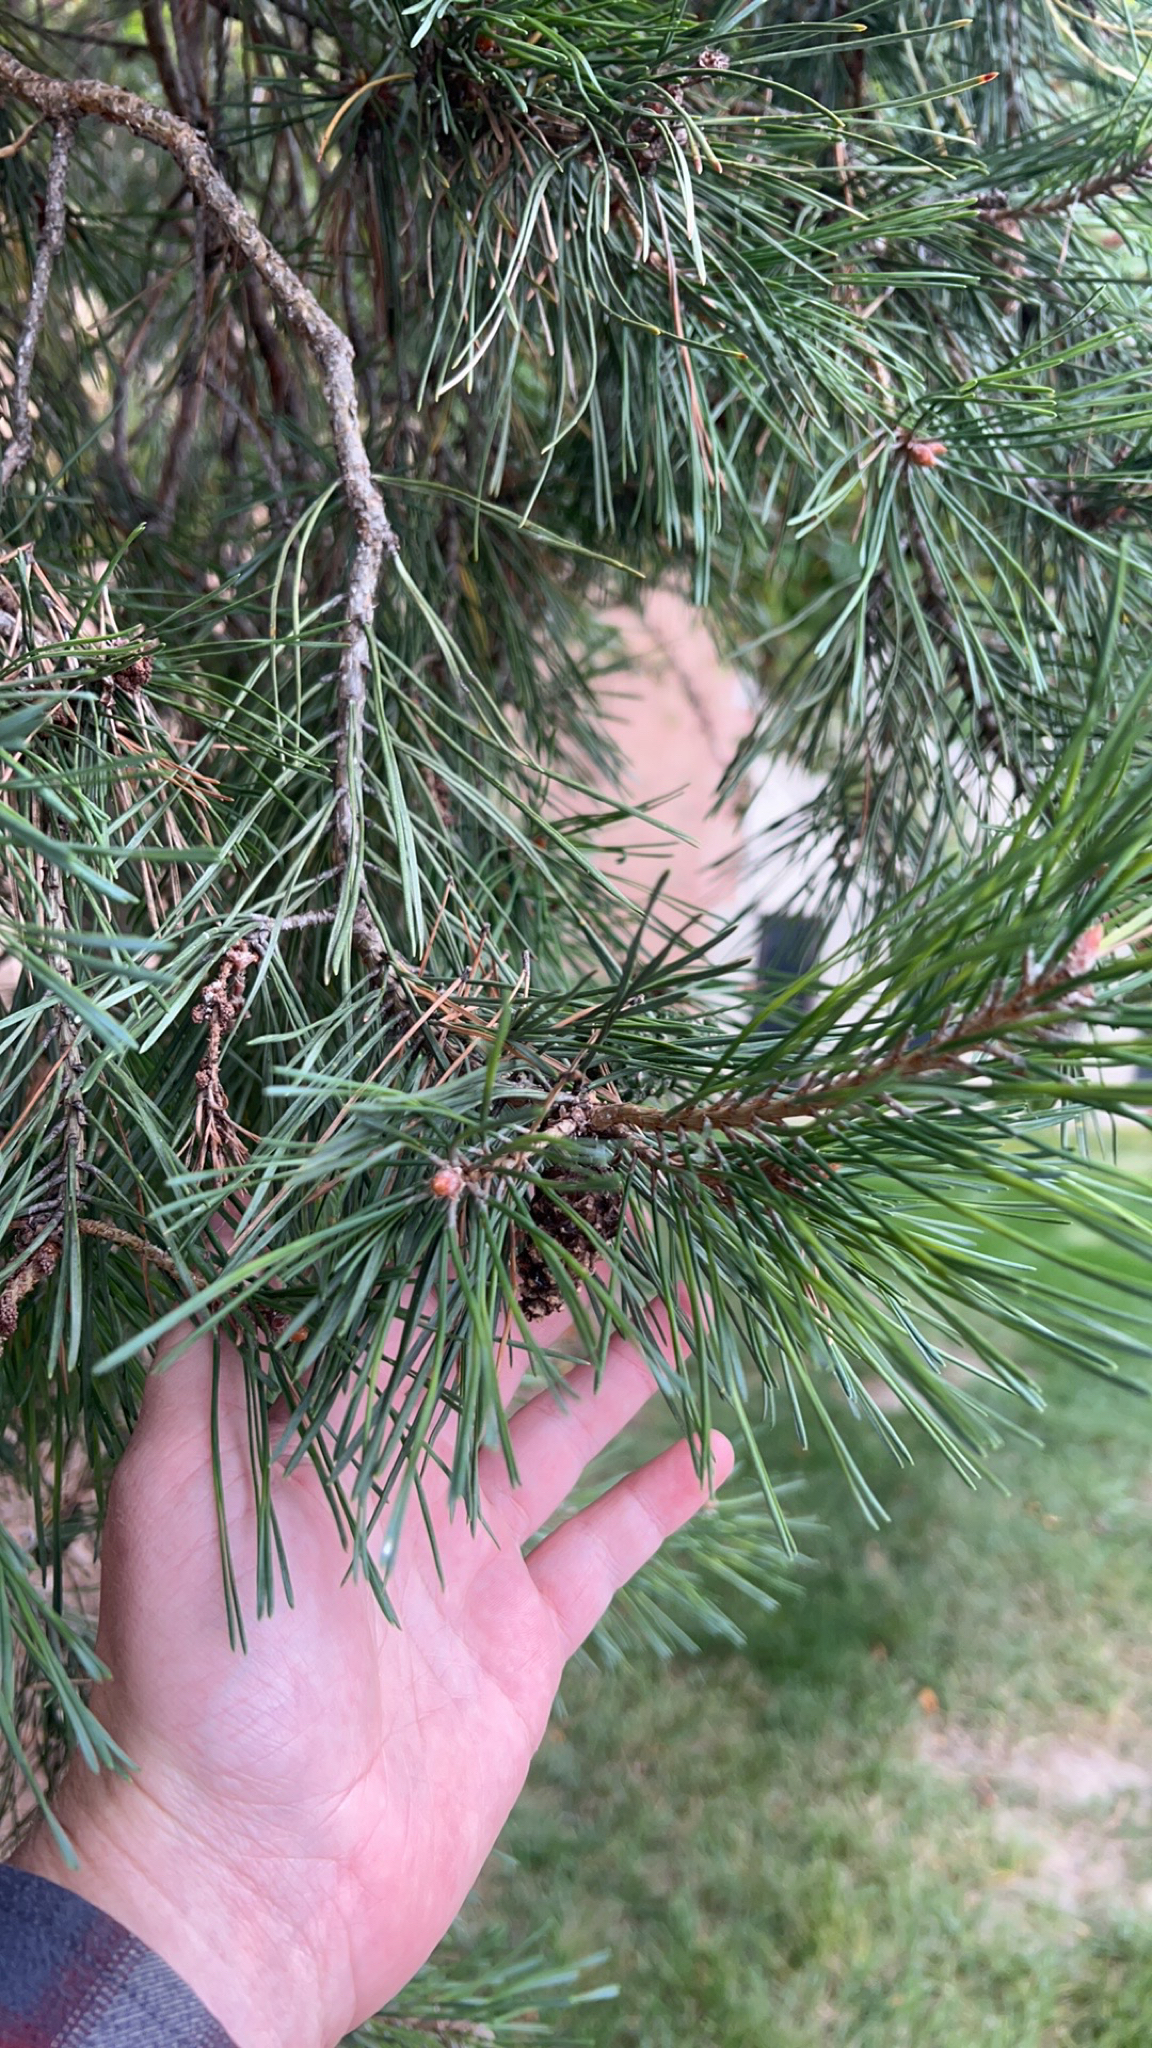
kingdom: Plantae
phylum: Tracheophyta
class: Pinopsida
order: Pinales
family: Pinaceae
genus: Pinus
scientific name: Pinus sylvestris
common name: Scots pine
